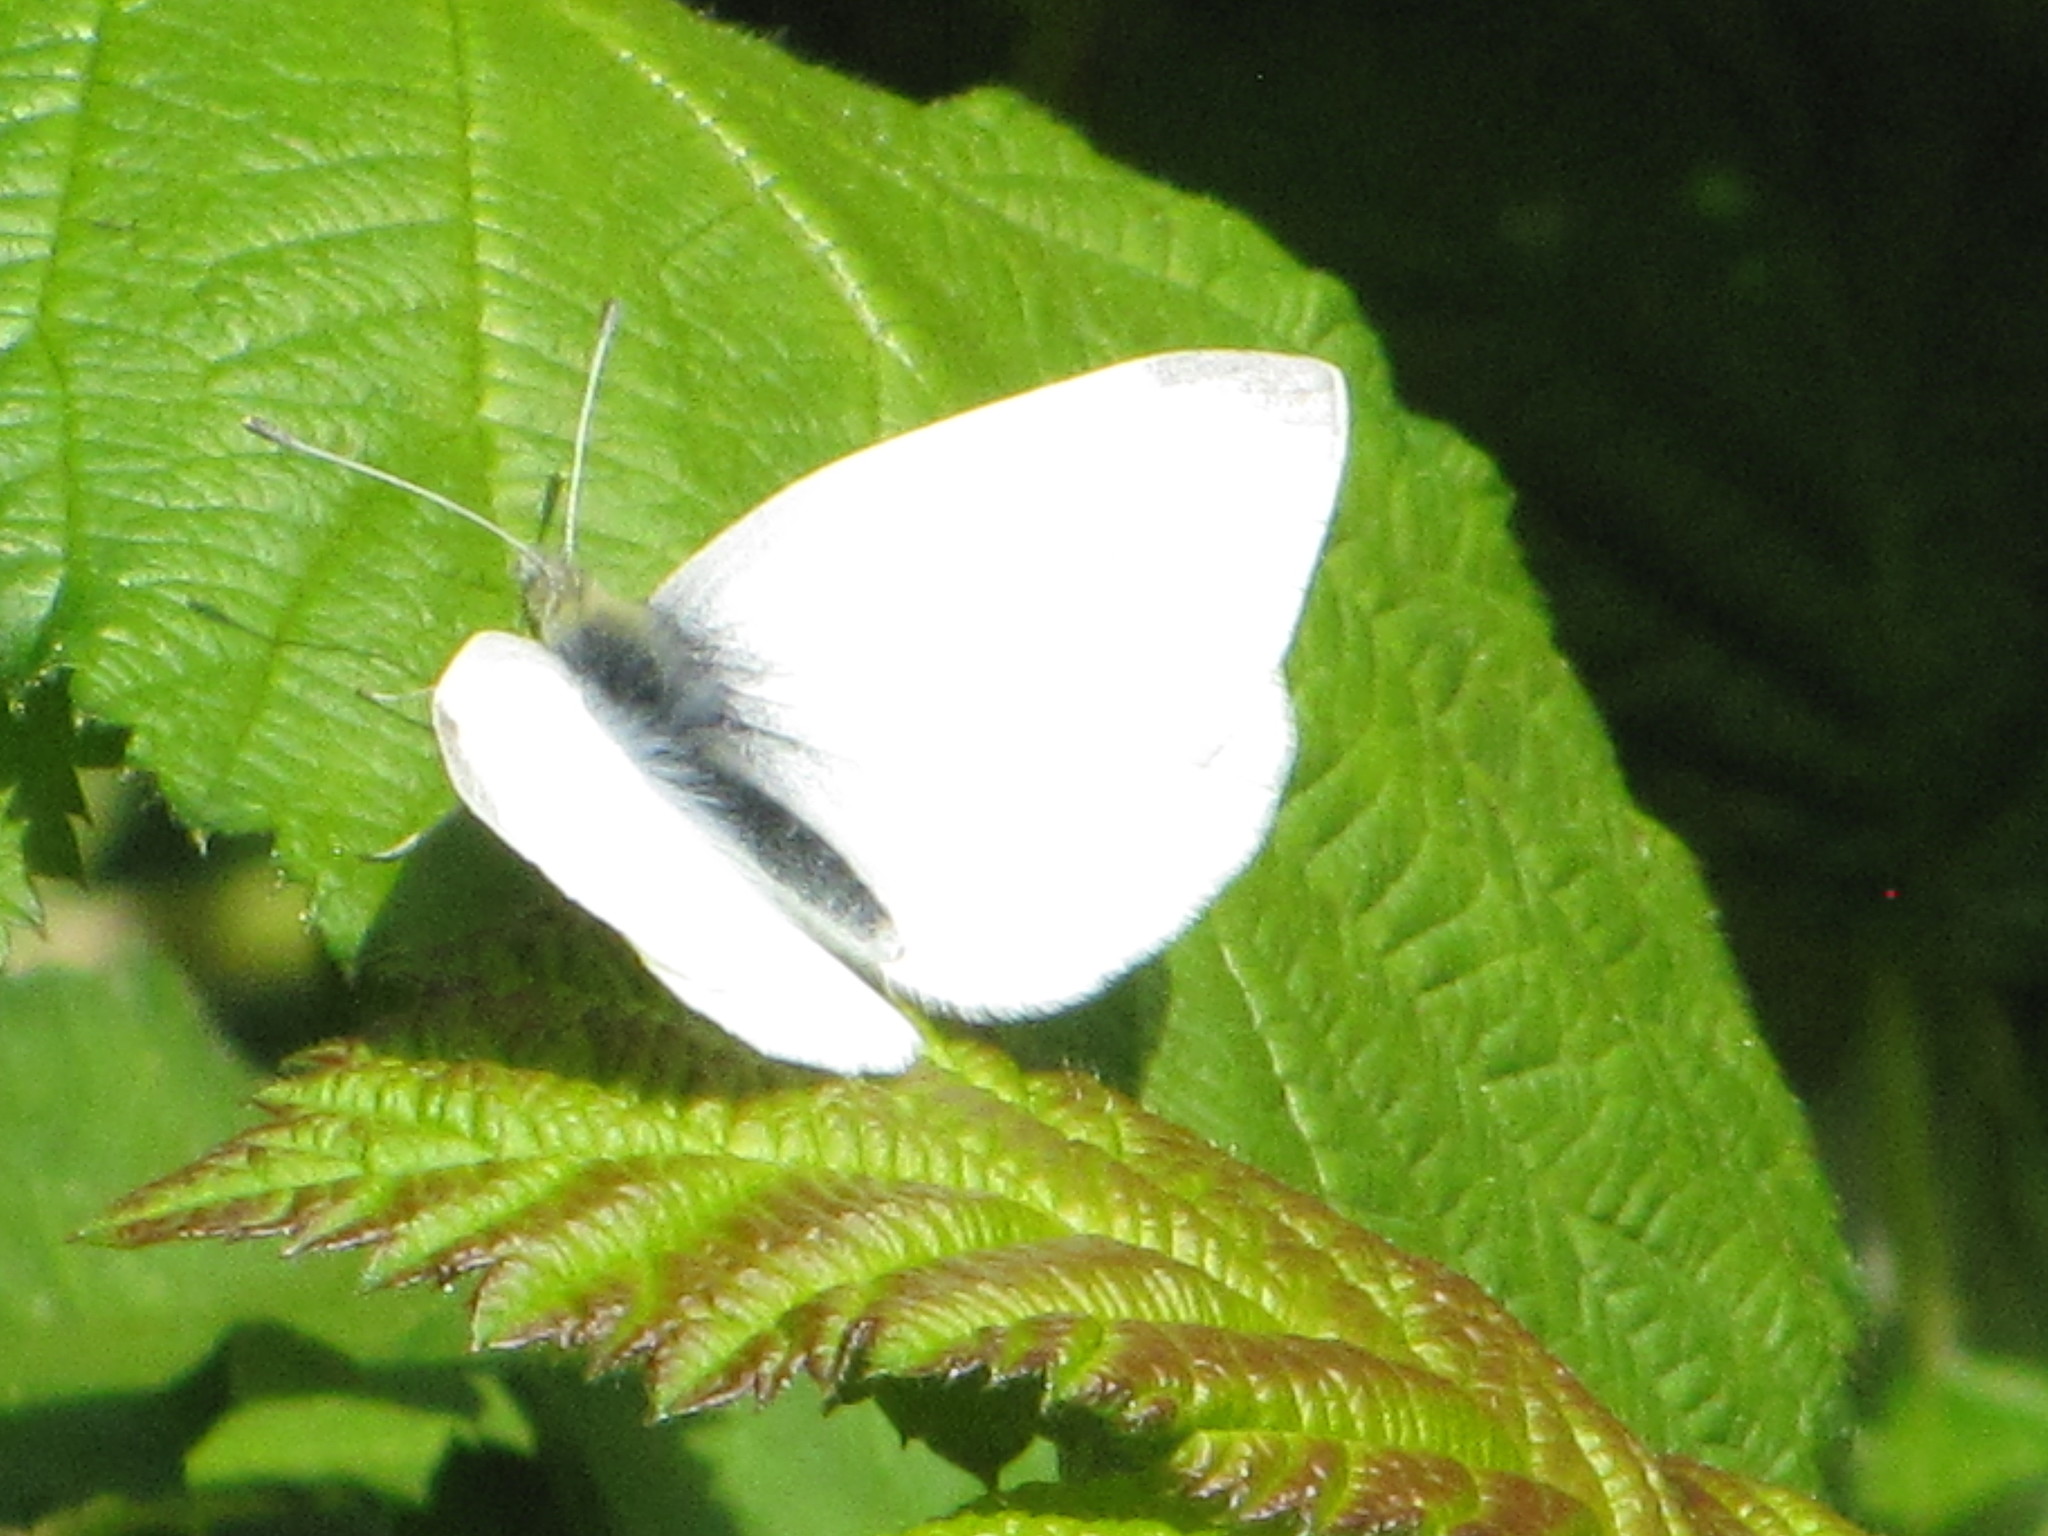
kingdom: Animalia
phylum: Arthropoda
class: Insecta
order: Lepidoptera
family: Pieridae
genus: Pieris
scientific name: Pieris rapae
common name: Small white
